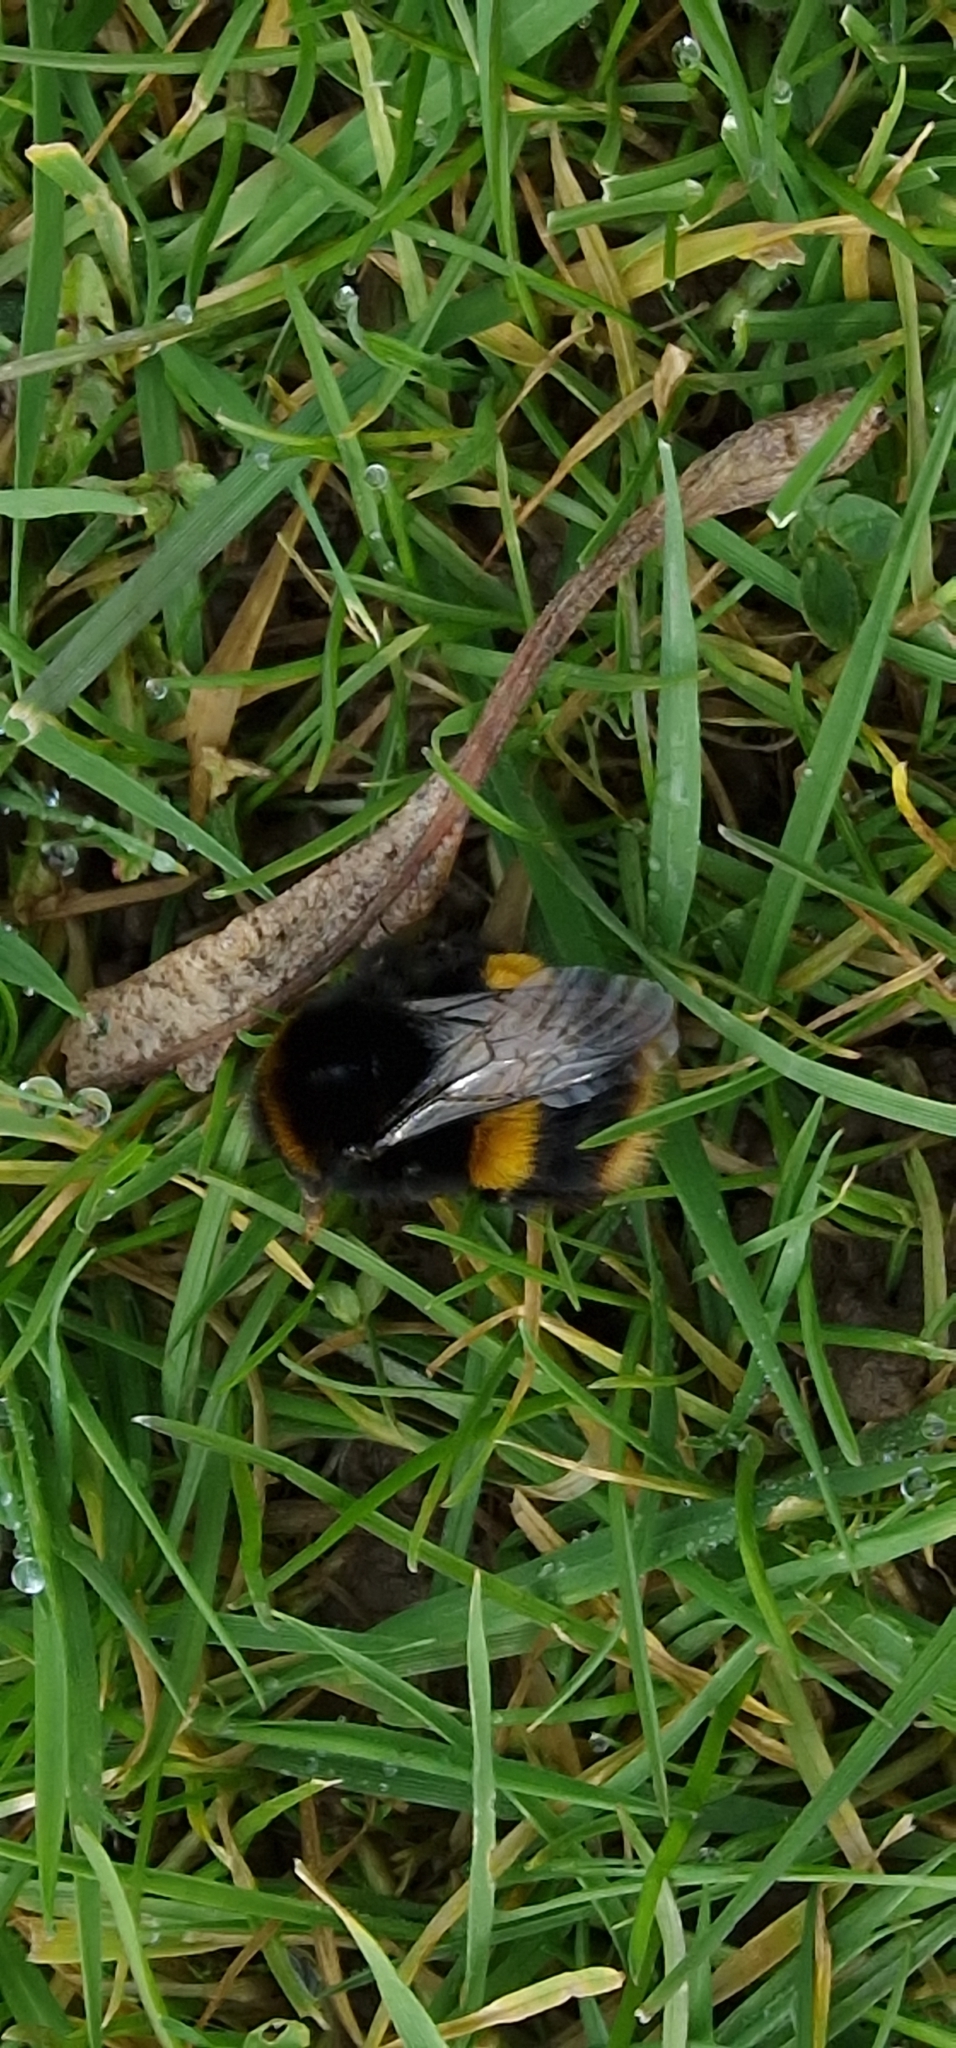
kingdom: Animalia
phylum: Arthropoda
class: Insecta
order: Hymenoptera
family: Apidae
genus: Bombus
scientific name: Bombus terrestris
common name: Buff-tailed bumblebee
